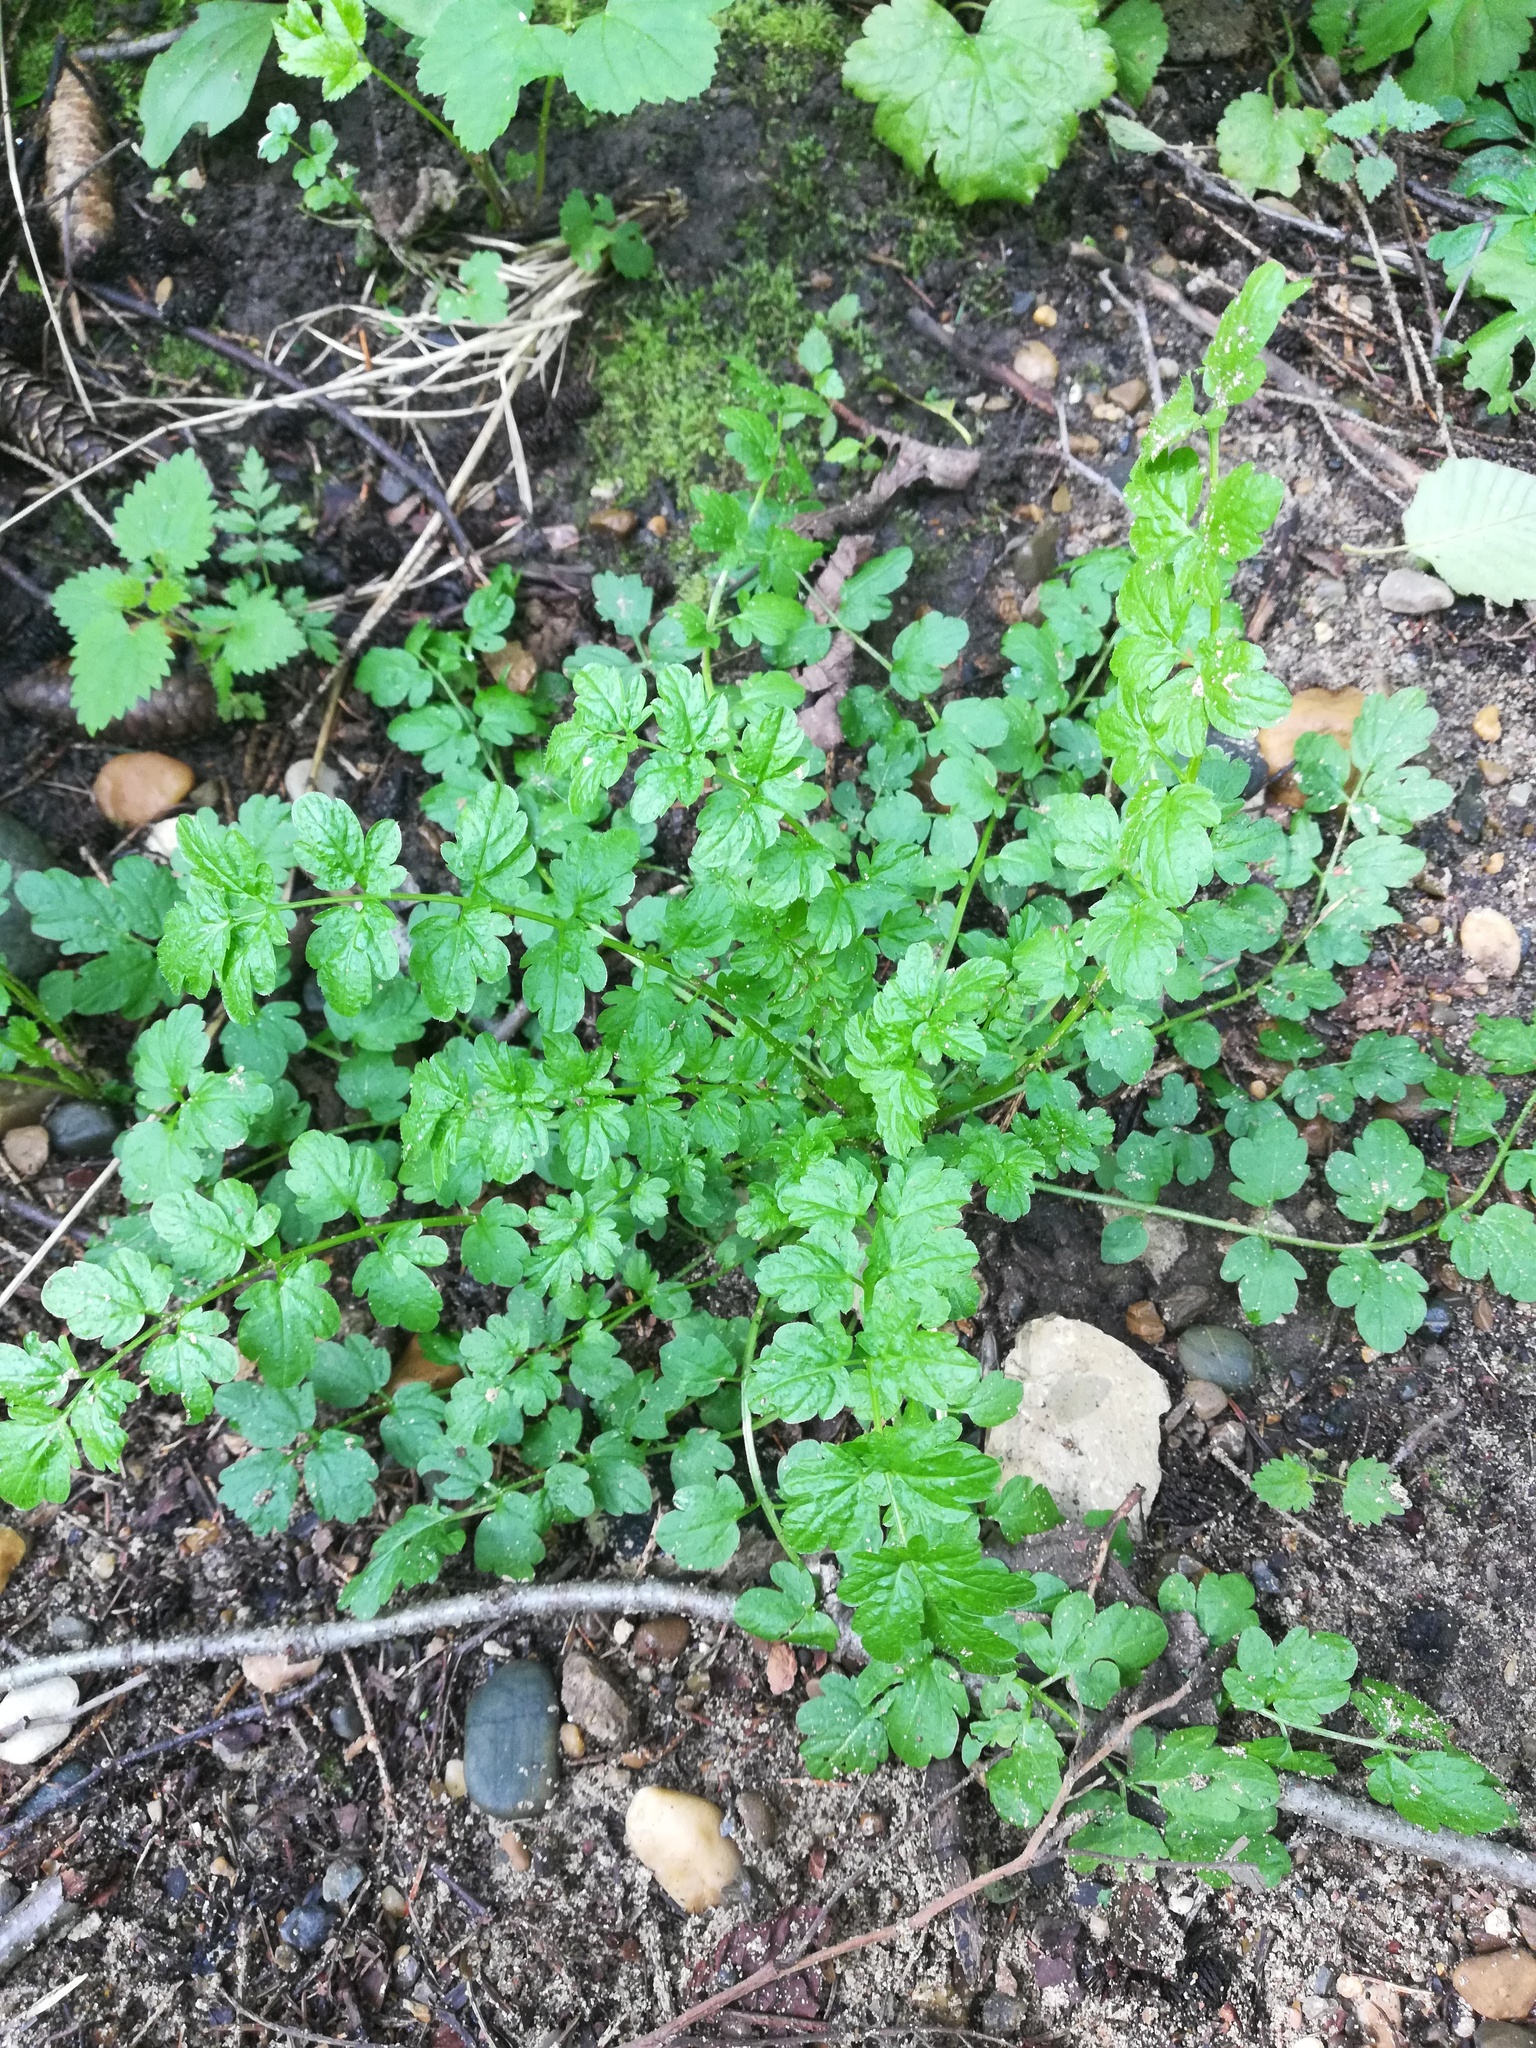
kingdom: Plantae
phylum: Tracheophyta
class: Magnoliopsida
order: Brassicales
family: Brassicaceae
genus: Cardamine
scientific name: Cardamine impatiens
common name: Narrow-leaved bitter-cress
